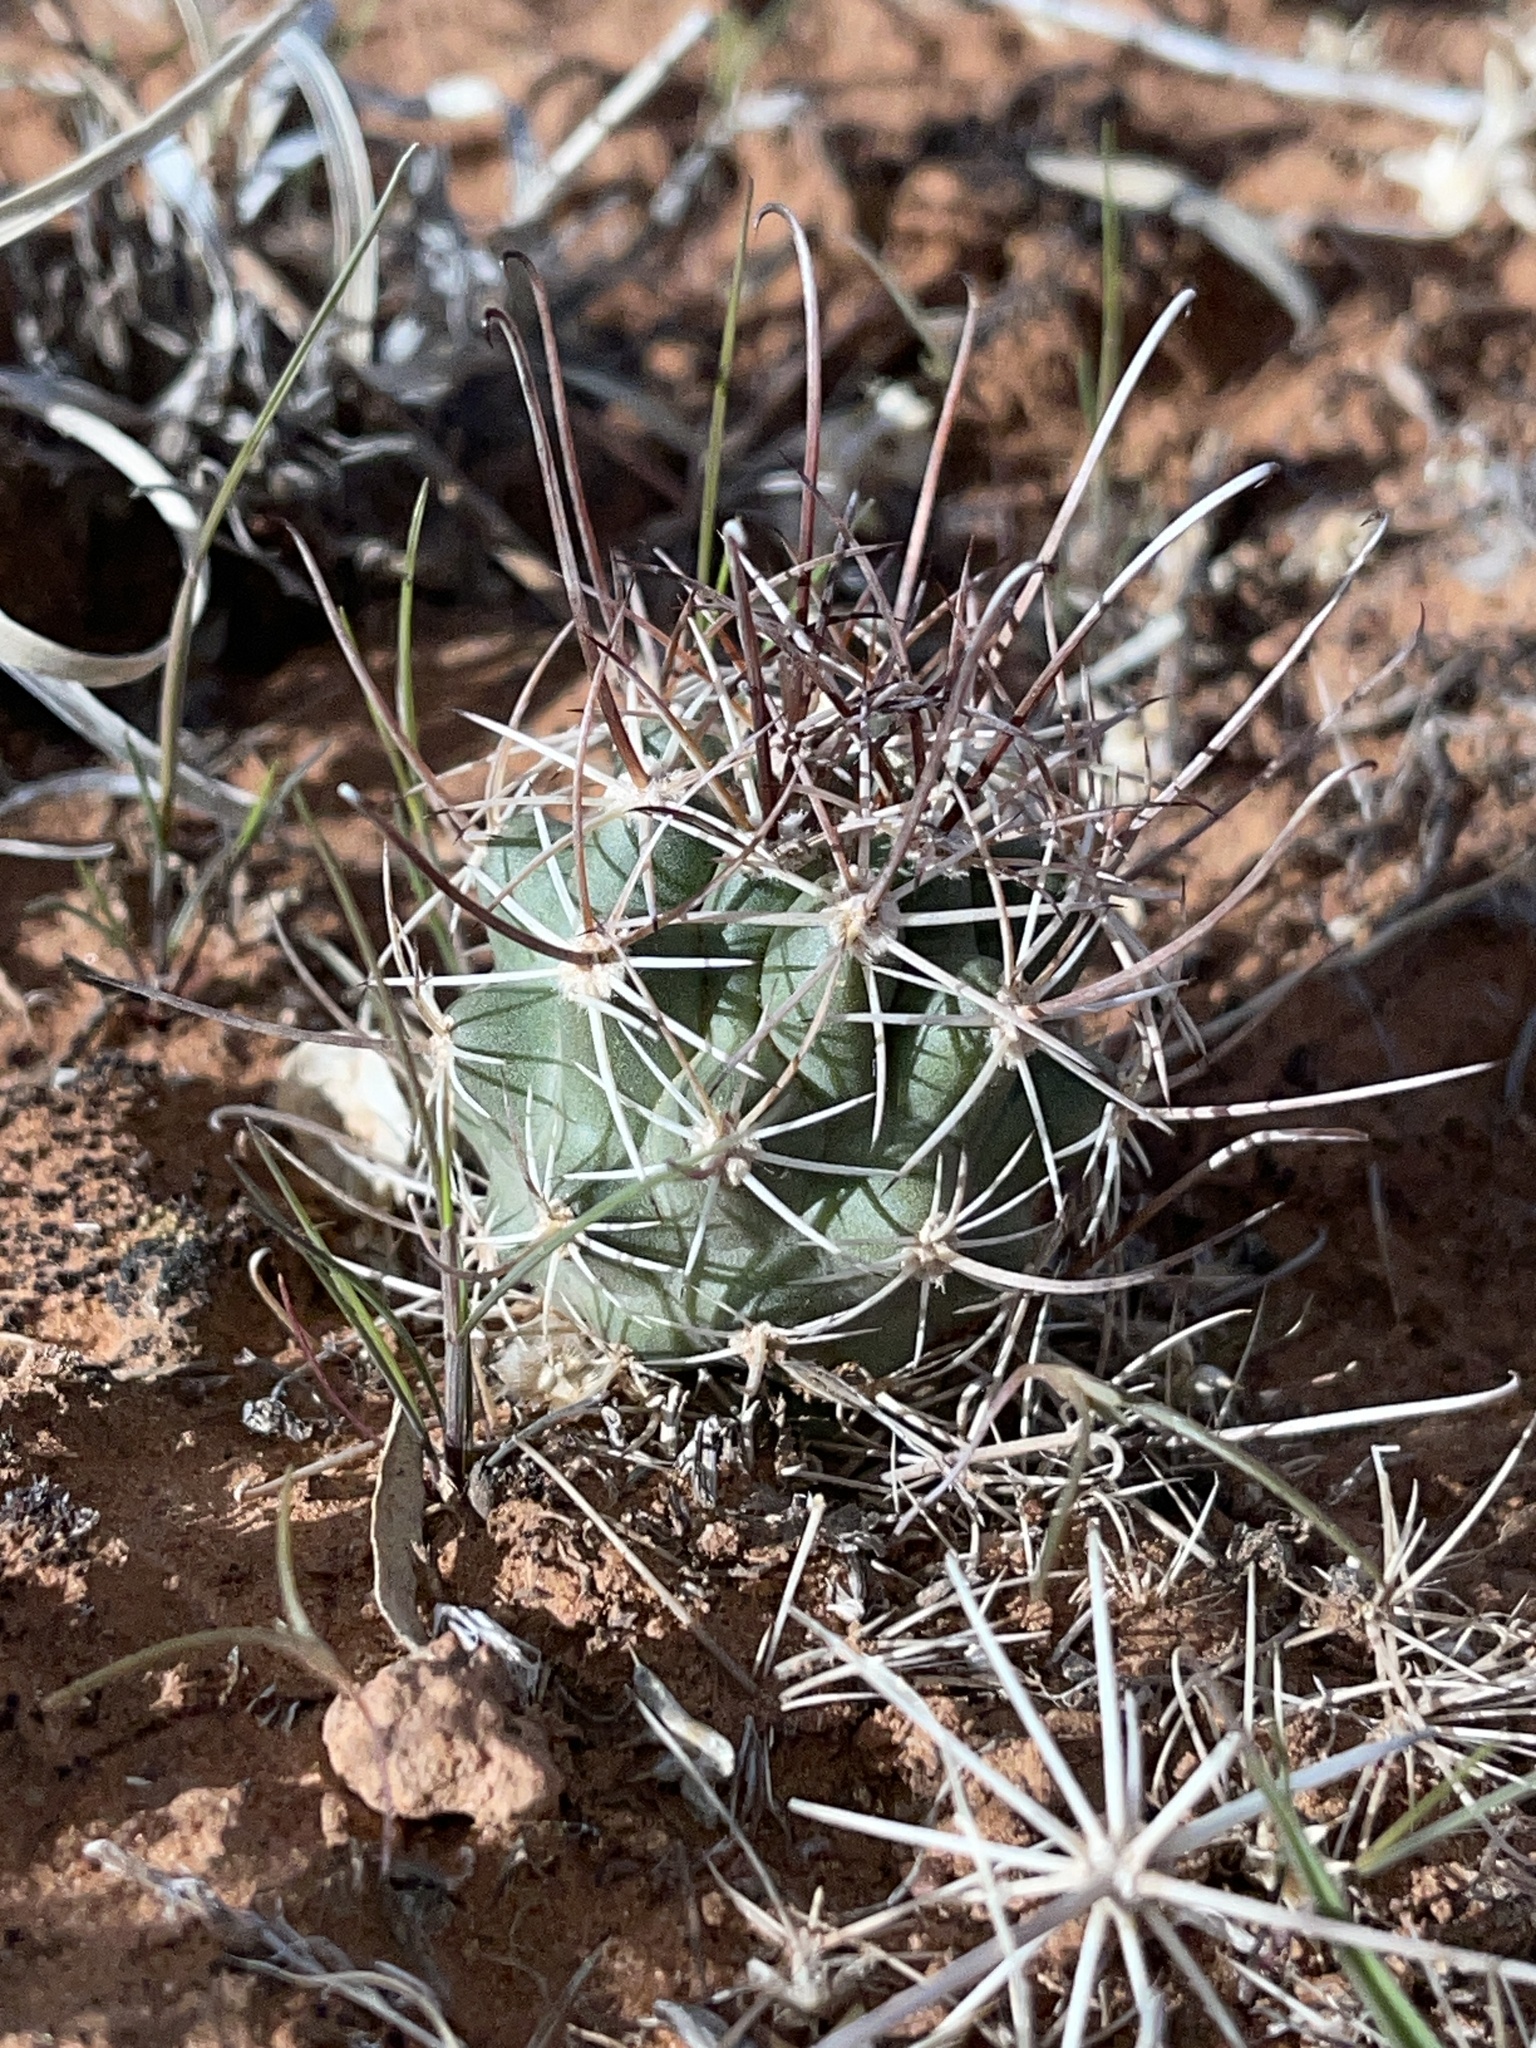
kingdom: Plantae
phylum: Tracheophyta
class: Magnoliopsida
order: Caryophyllales
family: Cactaceae
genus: Sclerocactus
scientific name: Sclerocactus parviflorus
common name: Small-flower fishhook cactus
